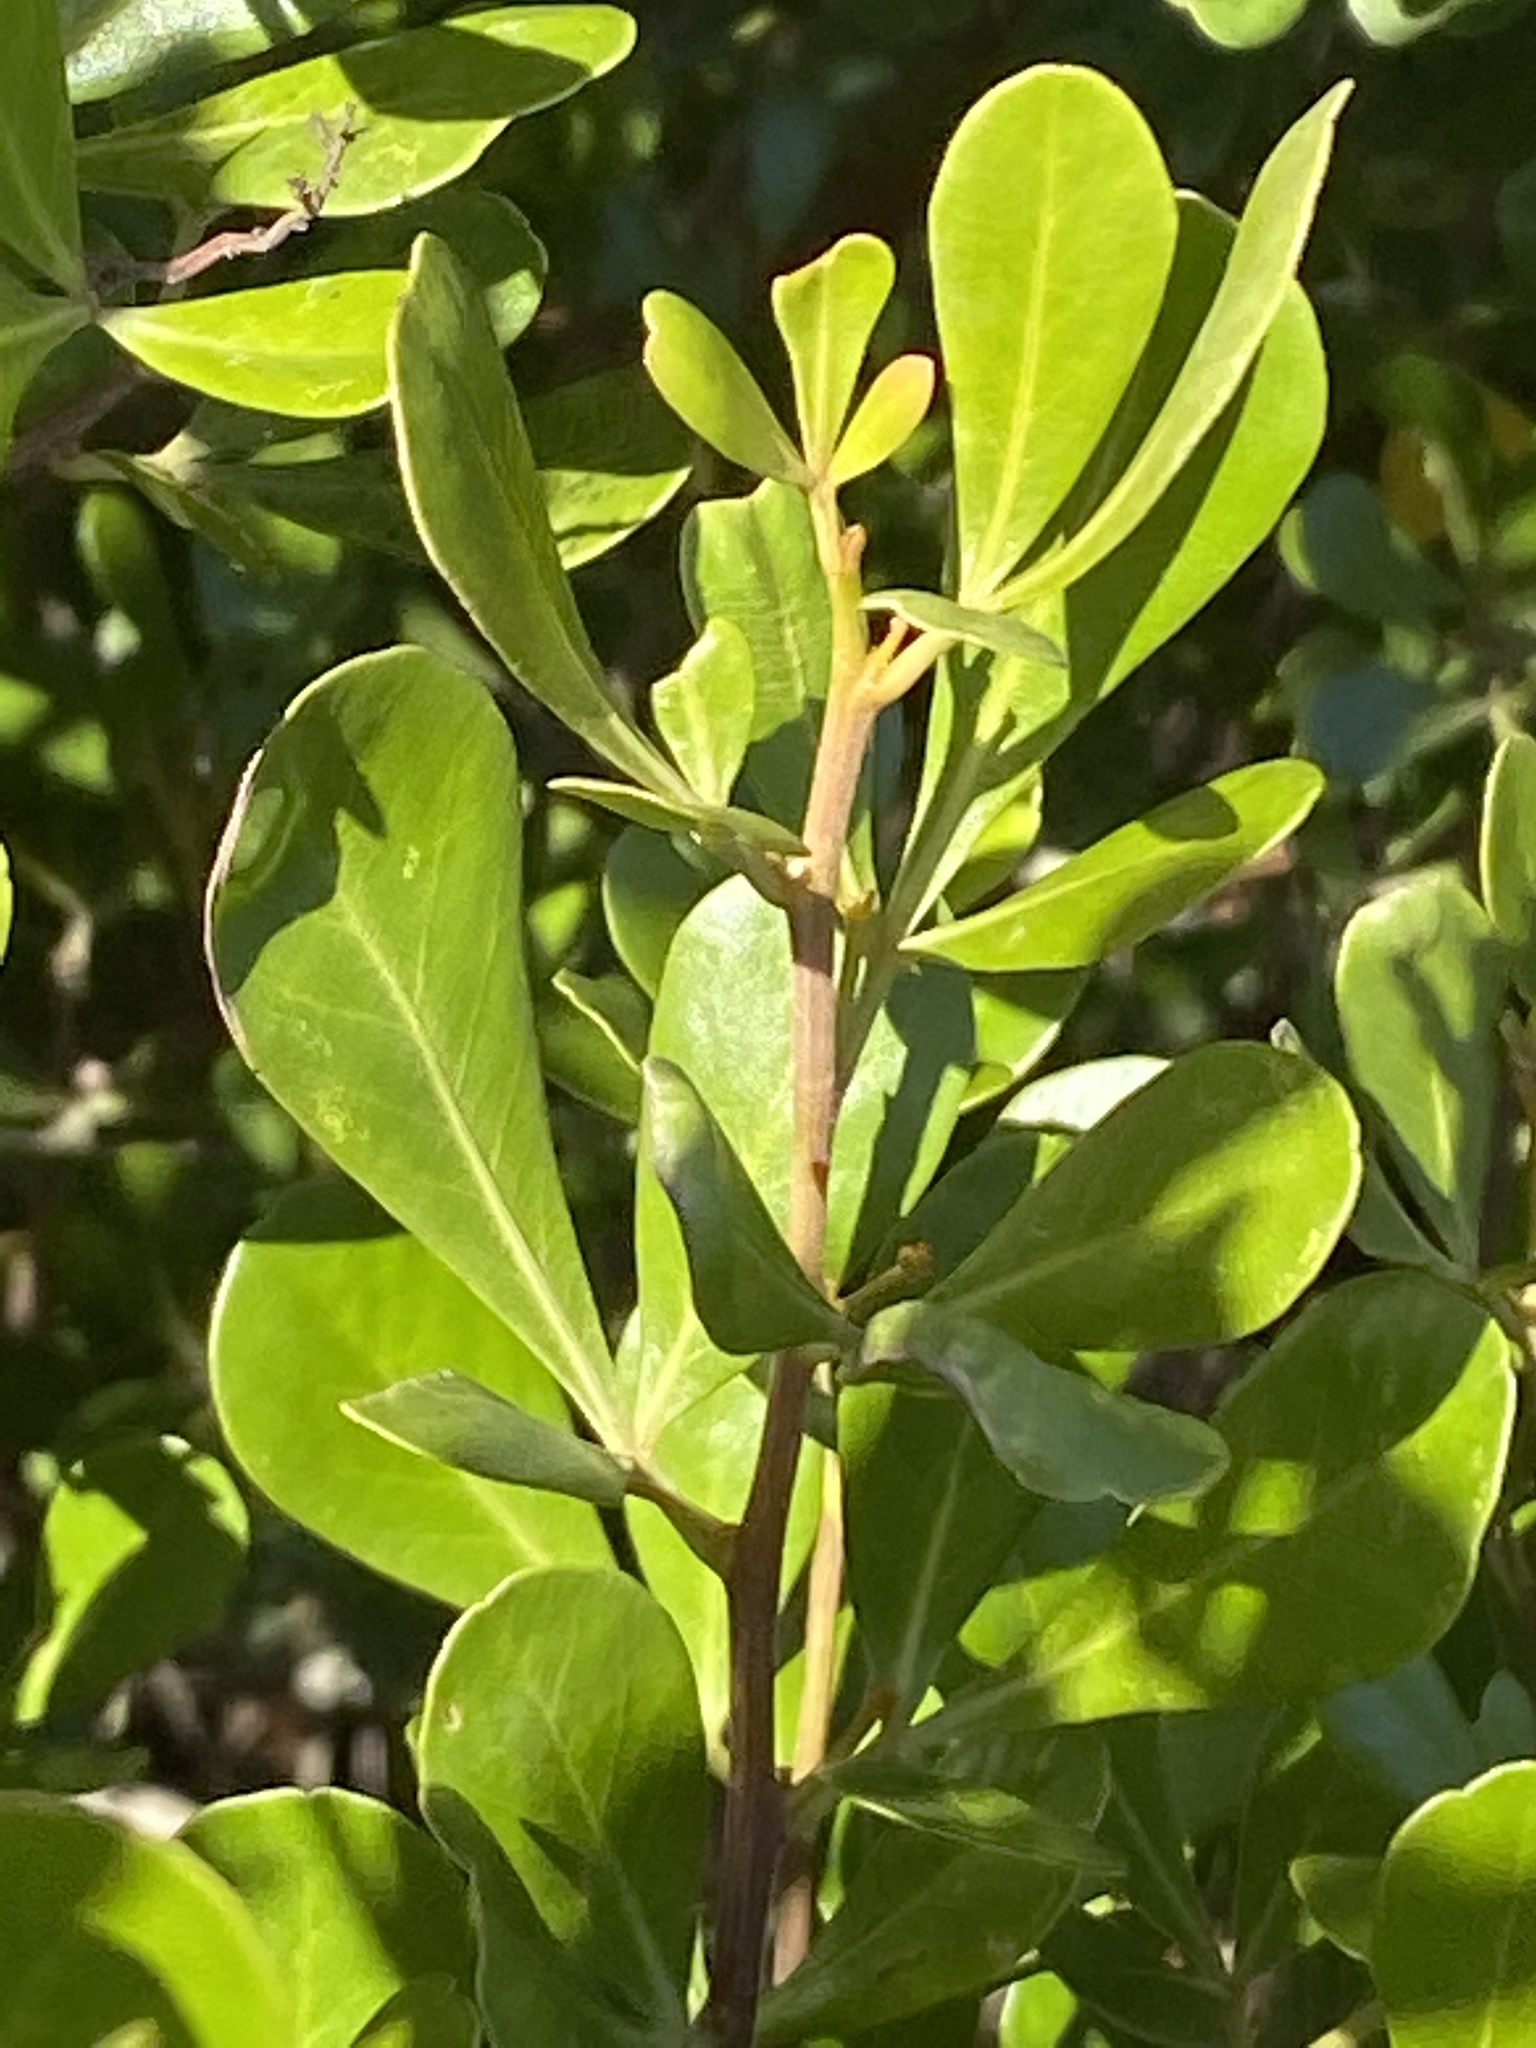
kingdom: Plantae
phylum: Tracheophyta
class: Magnoliopsida
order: Sapindales
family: Anacardiaceae
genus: Searsia
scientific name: Searsia lucida
